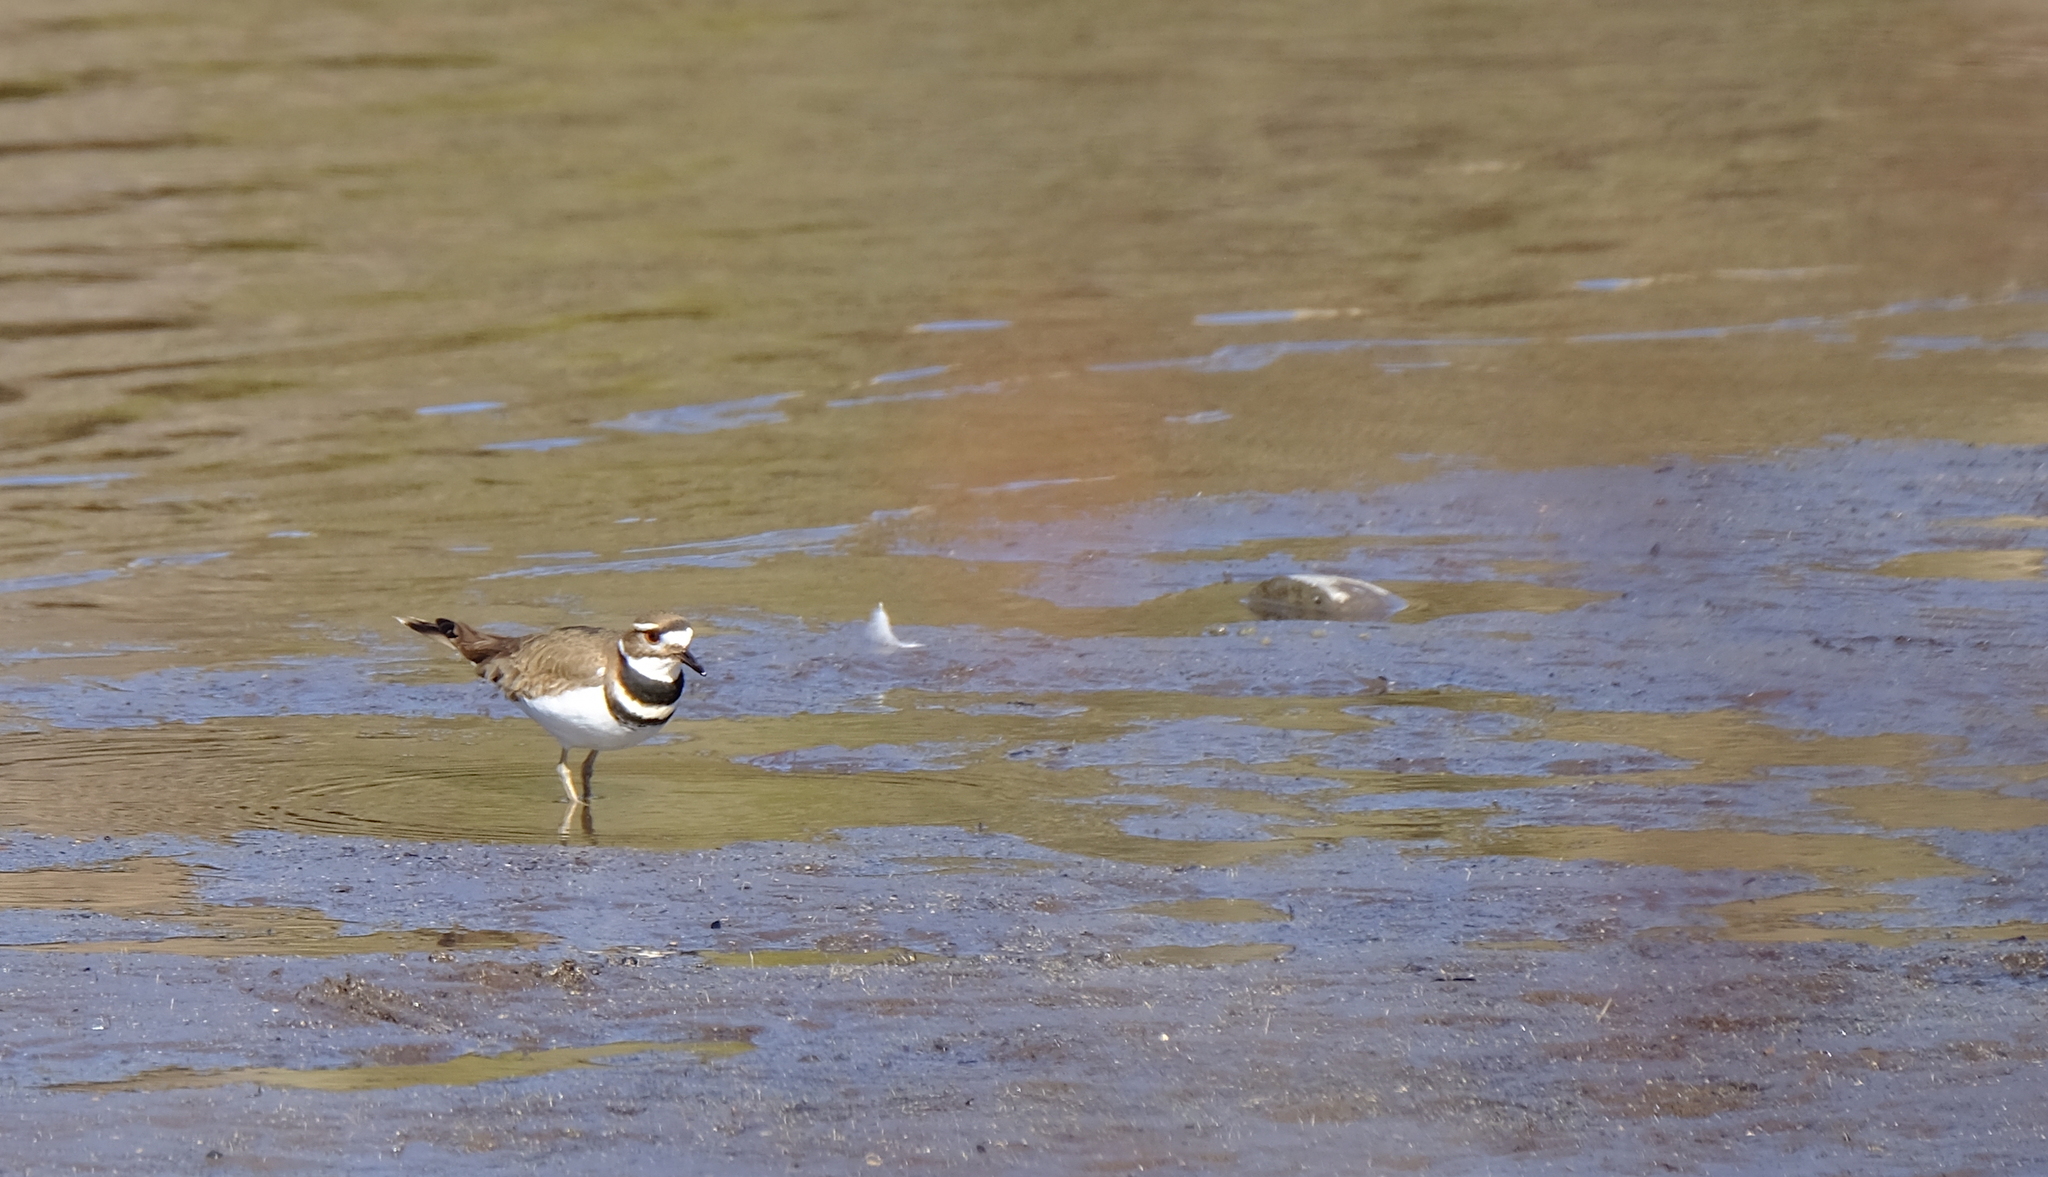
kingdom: Animalia
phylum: Chordata
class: Aves
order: Charadriiformes
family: Charadriidae
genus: Charadrius
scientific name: Charadrius vociferus
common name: Killdeer
